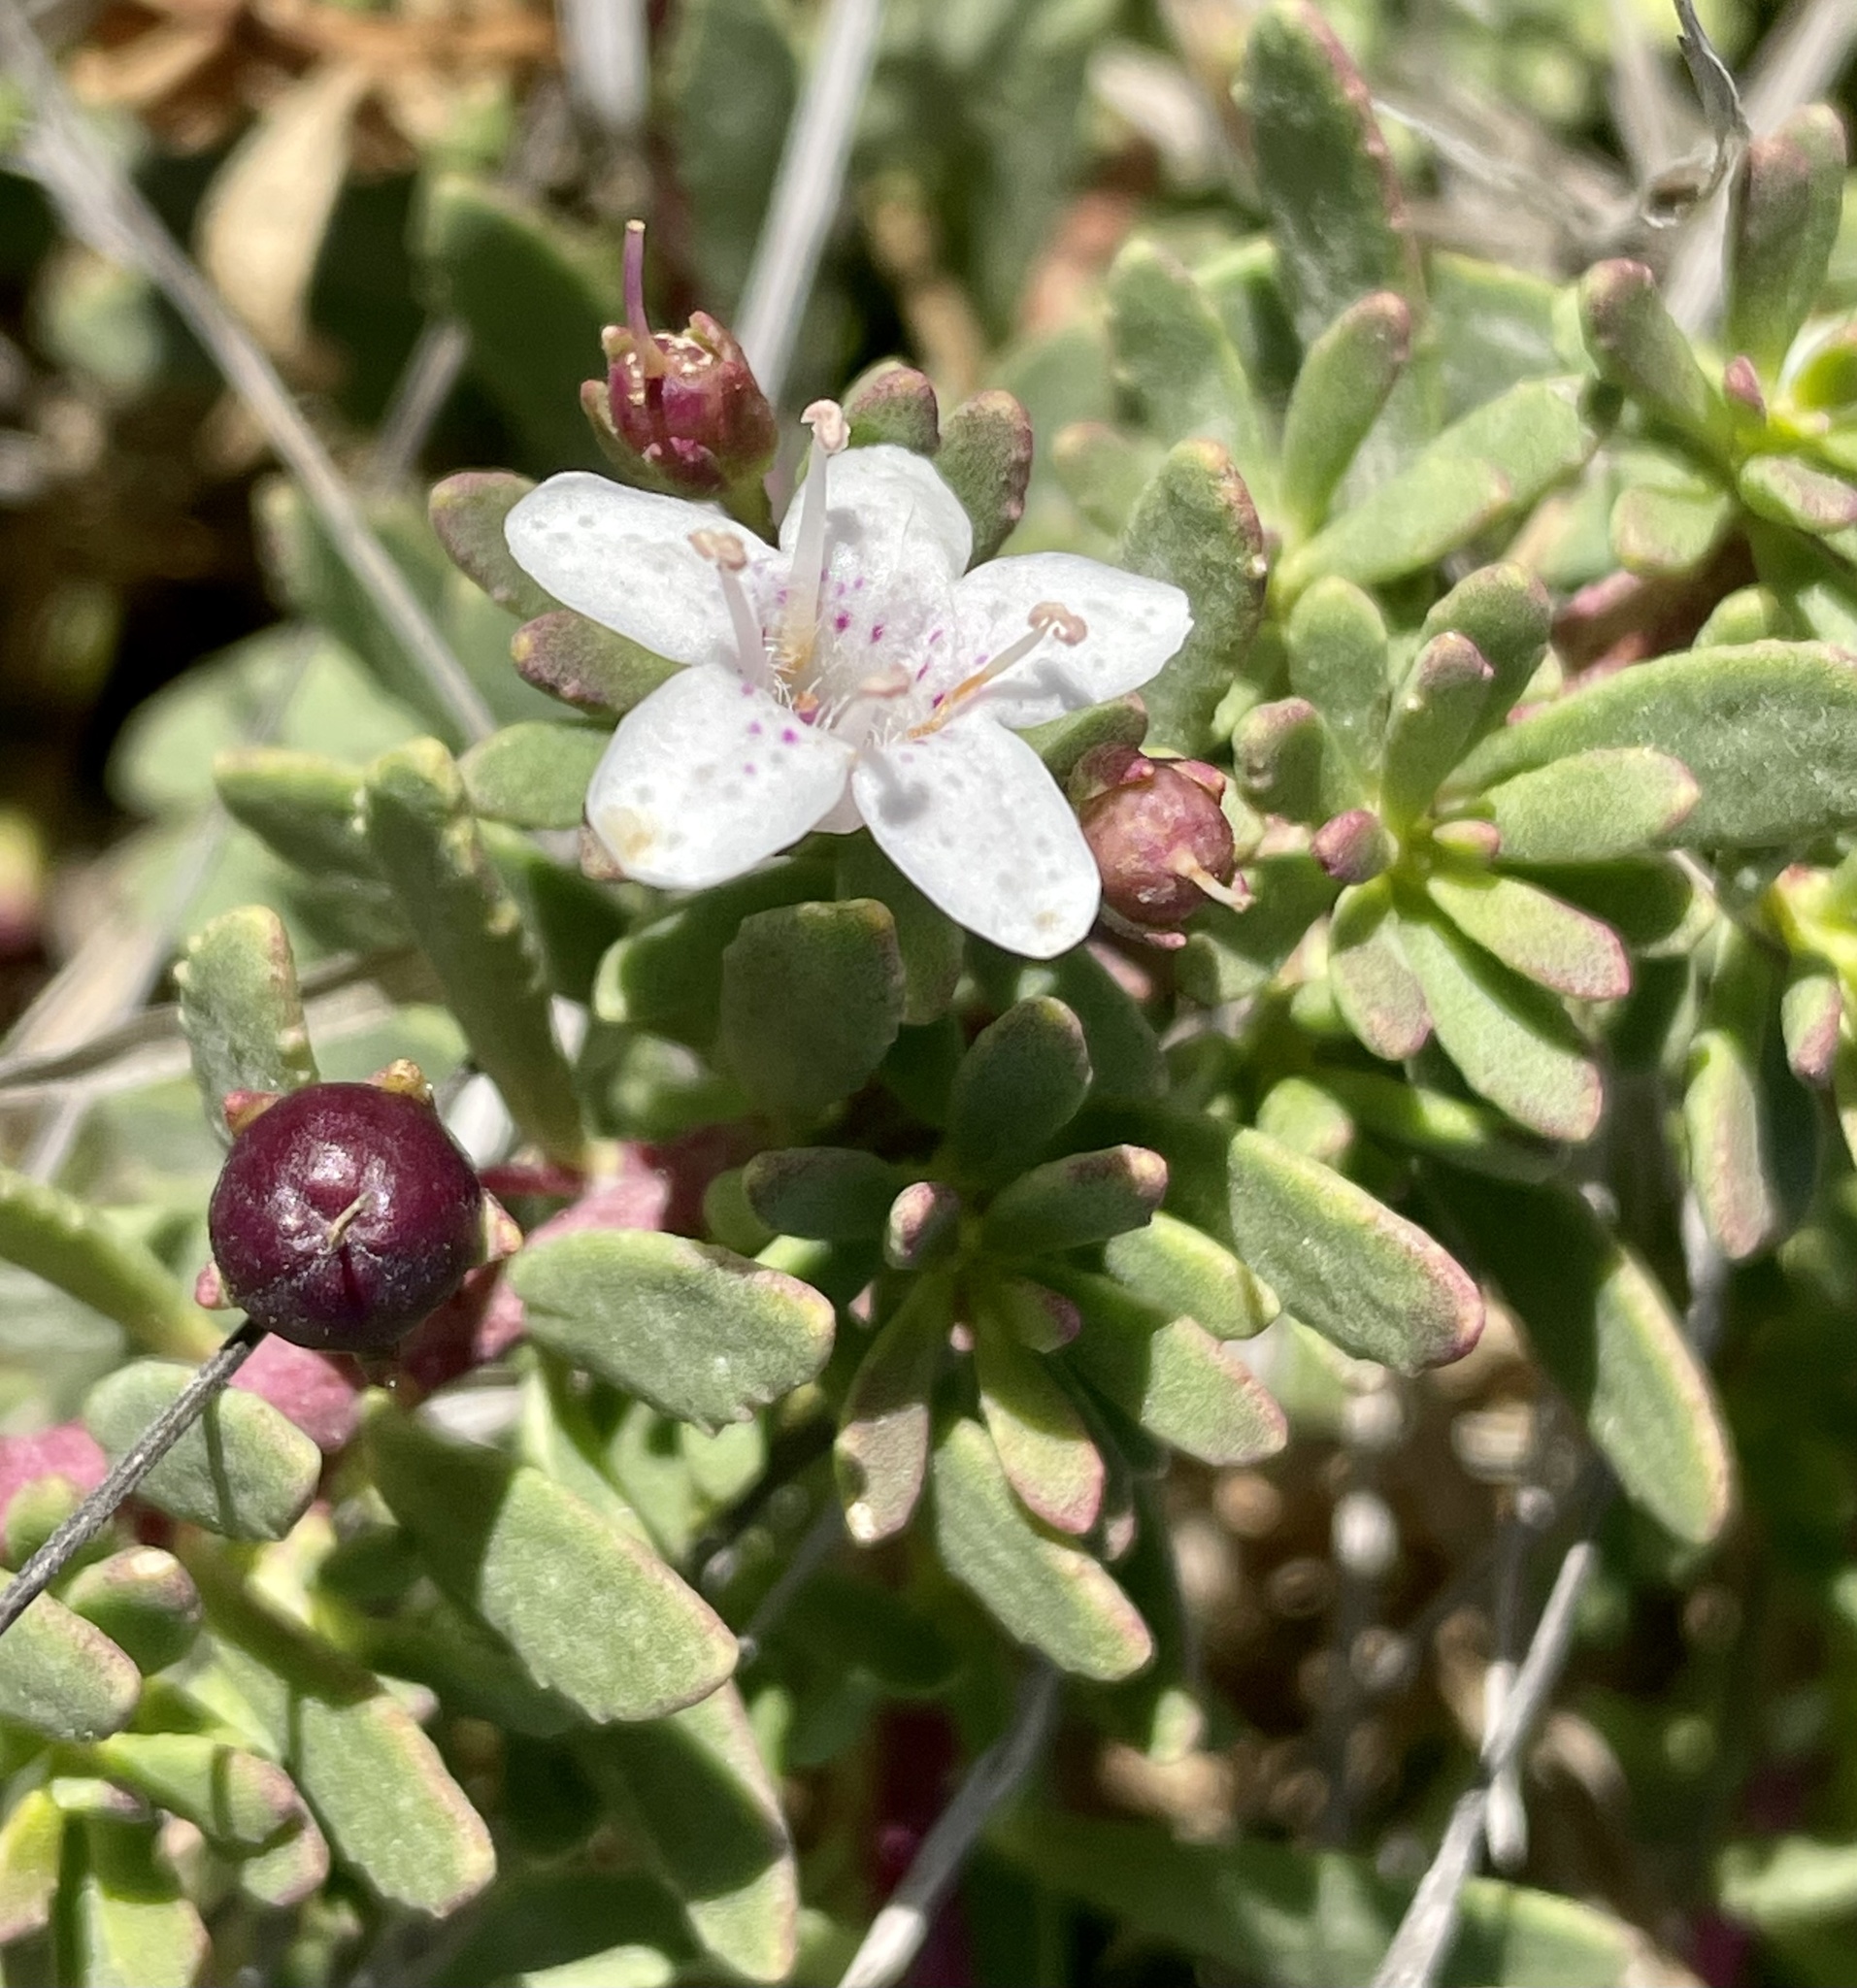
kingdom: Plantae
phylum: Tracheophyta
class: Magnoliopsida
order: Lamiales
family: Scrophulariaceae
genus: Myoporum
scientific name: Myoporum parvifolium
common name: Dwarf native-myrtle
